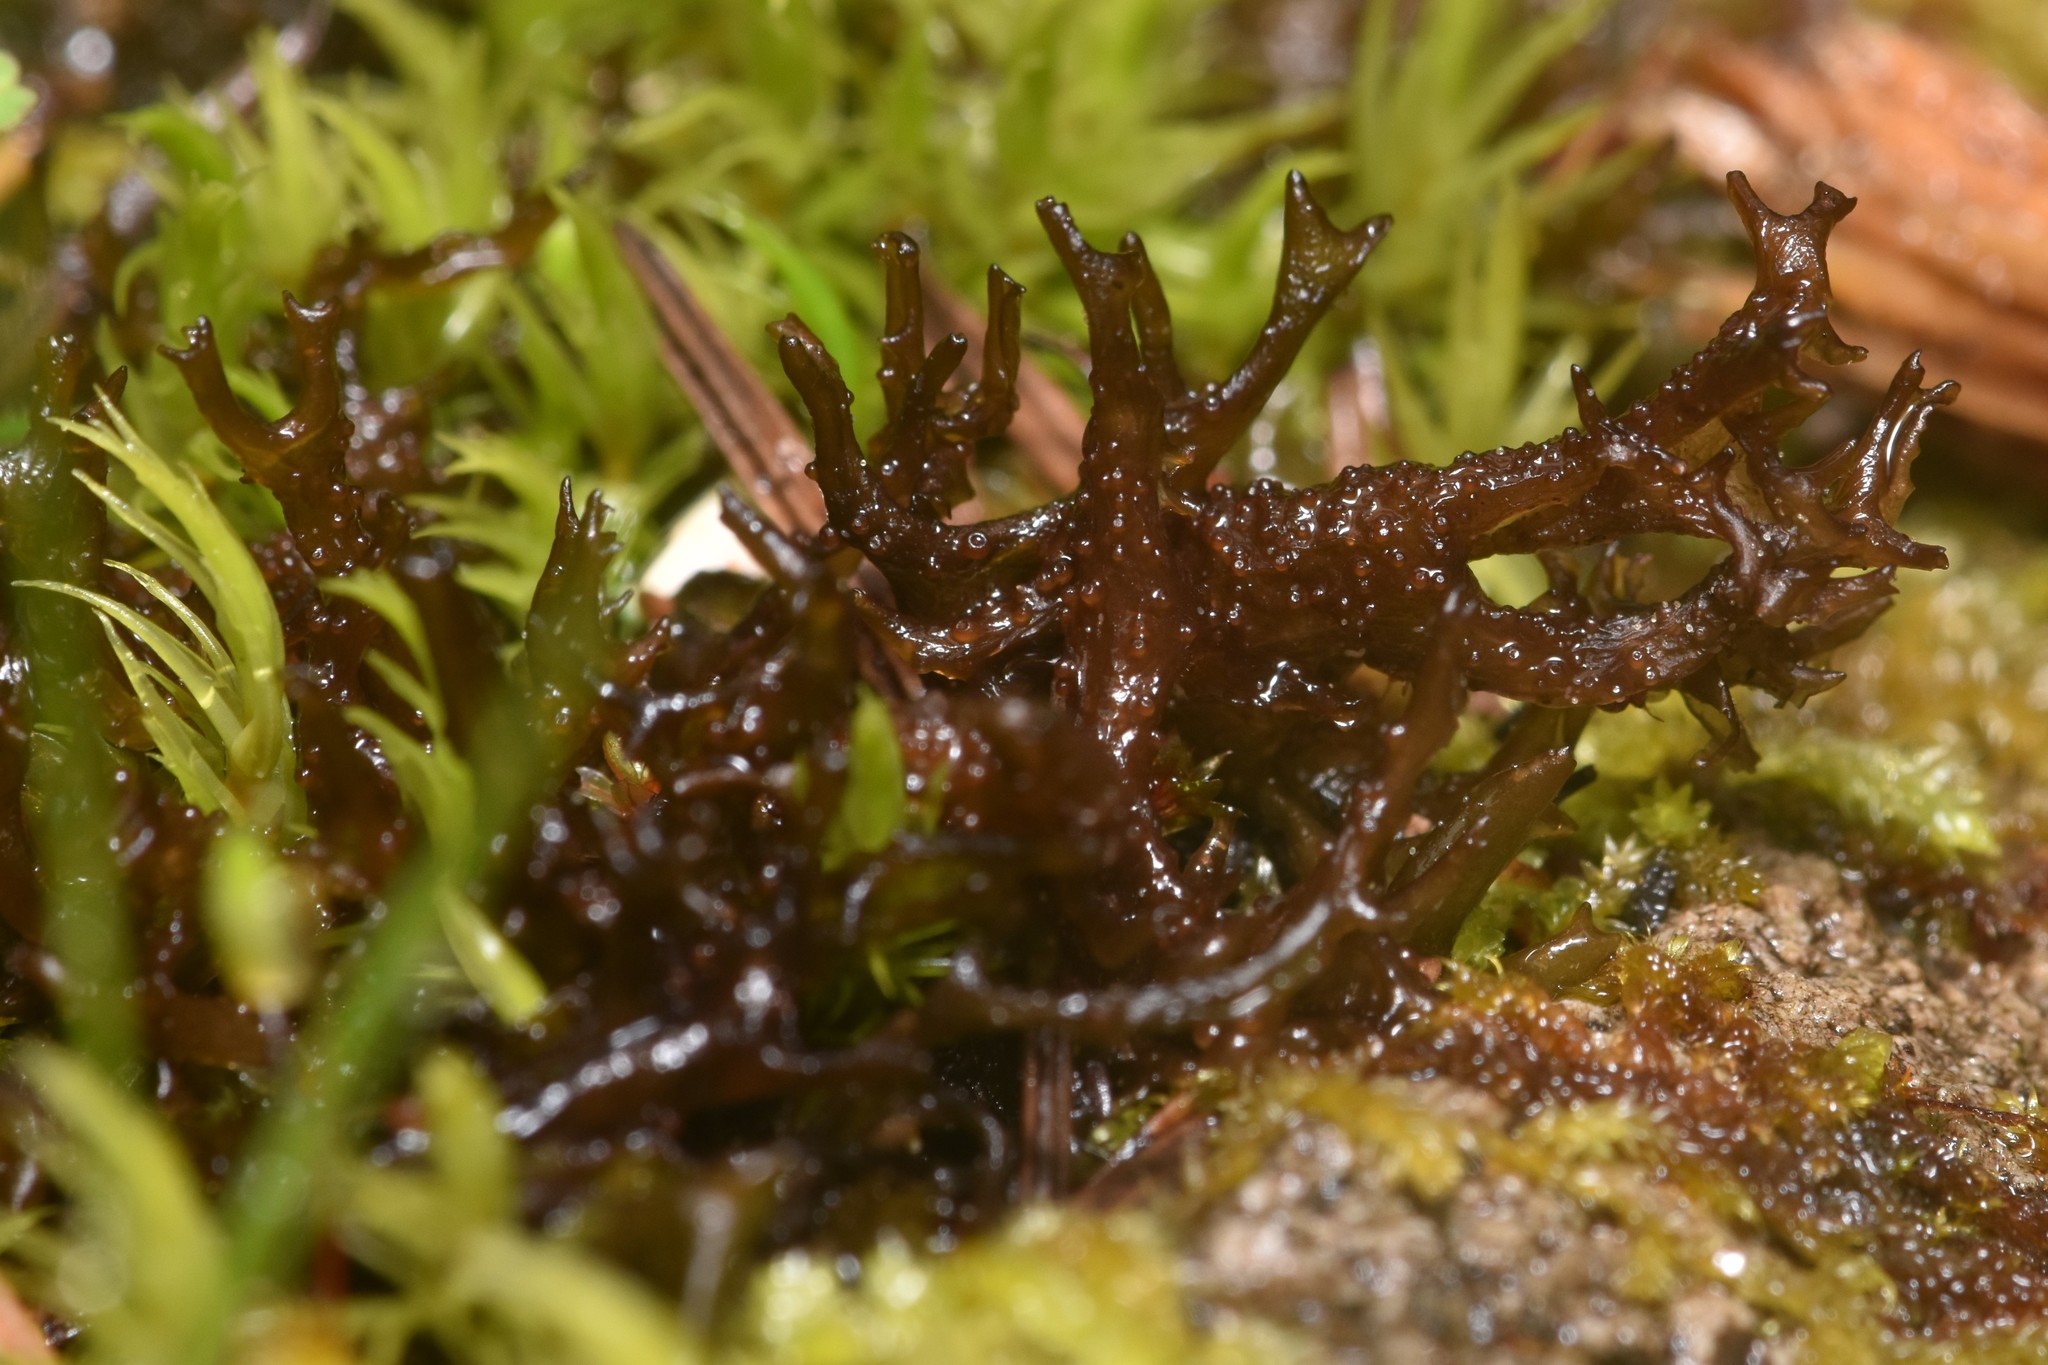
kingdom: Fungi
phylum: Ascomycota
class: Lecanoromycetes
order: Peltigerales
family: Collemataceae
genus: Scytinium
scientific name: Scytinium palmatum
